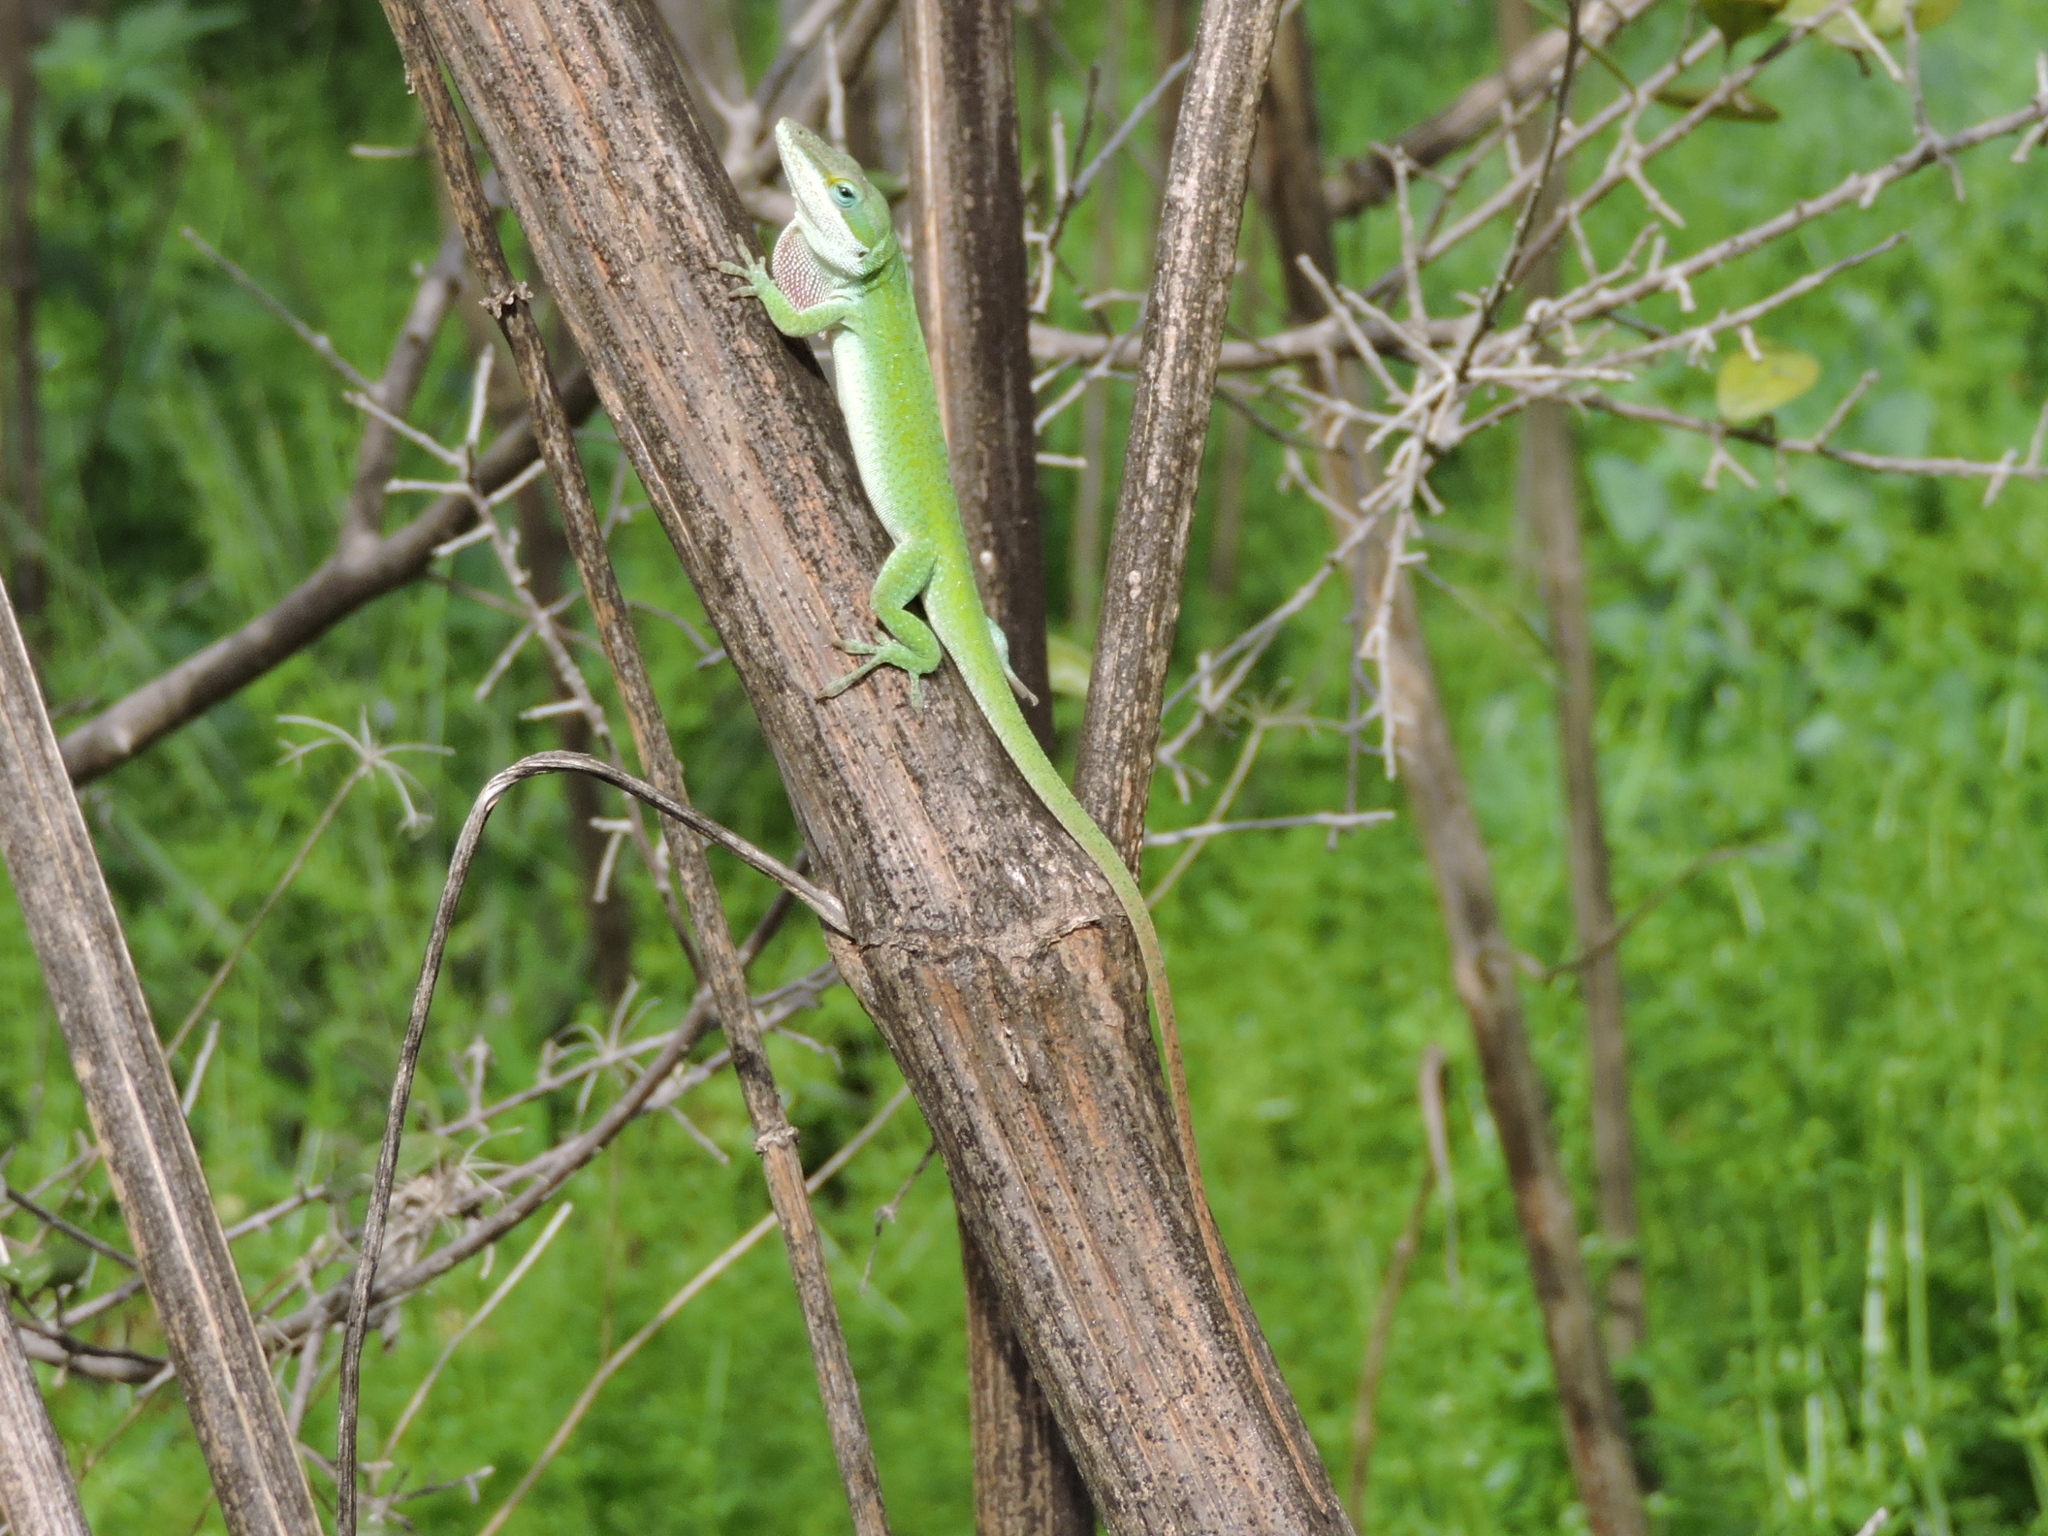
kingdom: Animalia
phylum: Chordata
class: Squamata
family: Dactyloidae
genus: Anolis
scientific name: Anolis carolinensis
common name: Green anole
